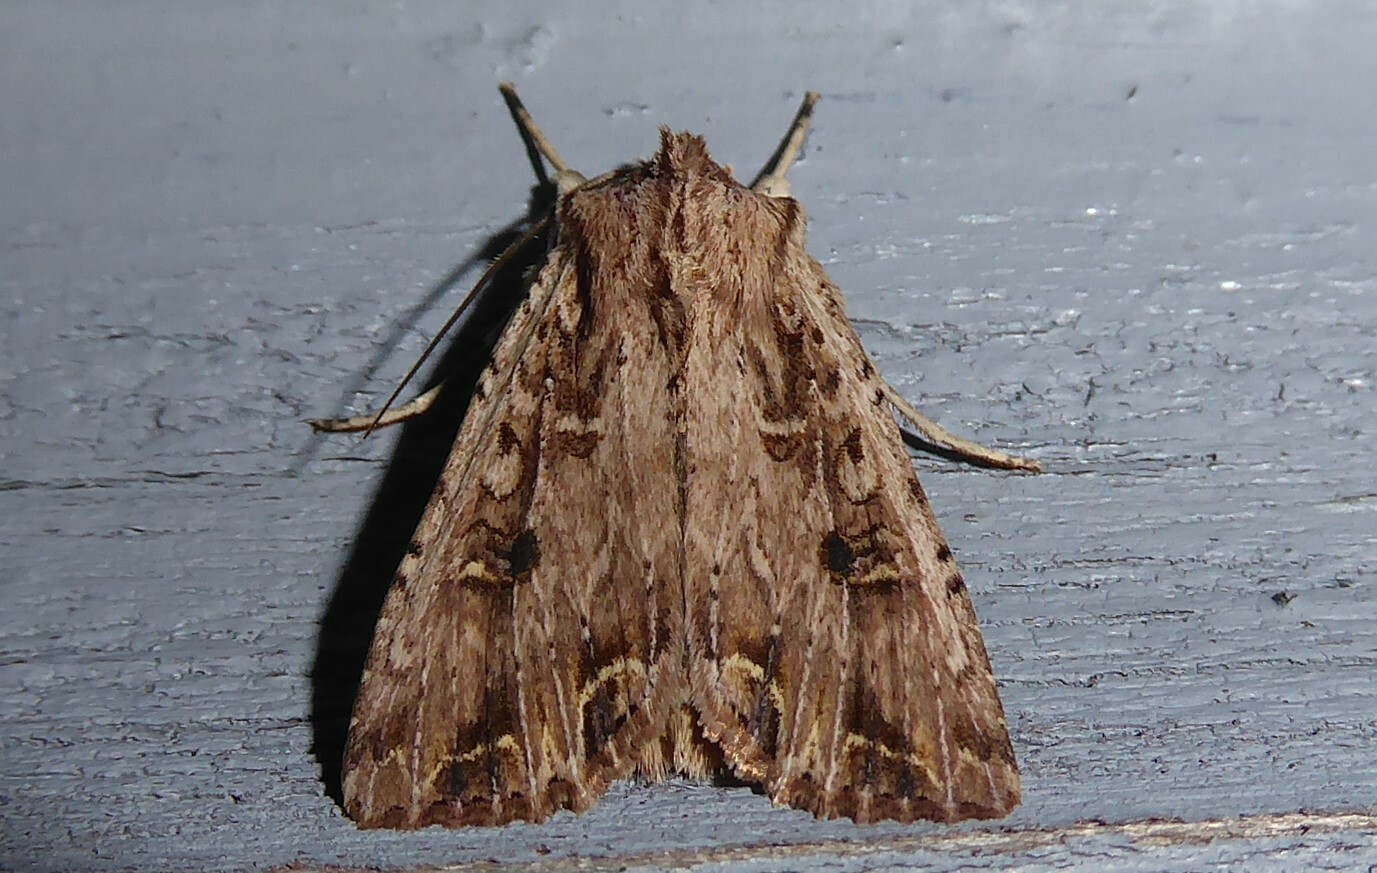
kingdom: Animalia
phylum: Arthropoda
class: Insecta
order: Lepidoptera
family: Noctuidae
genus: Ichneutica
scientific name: Ichneutica lignana
